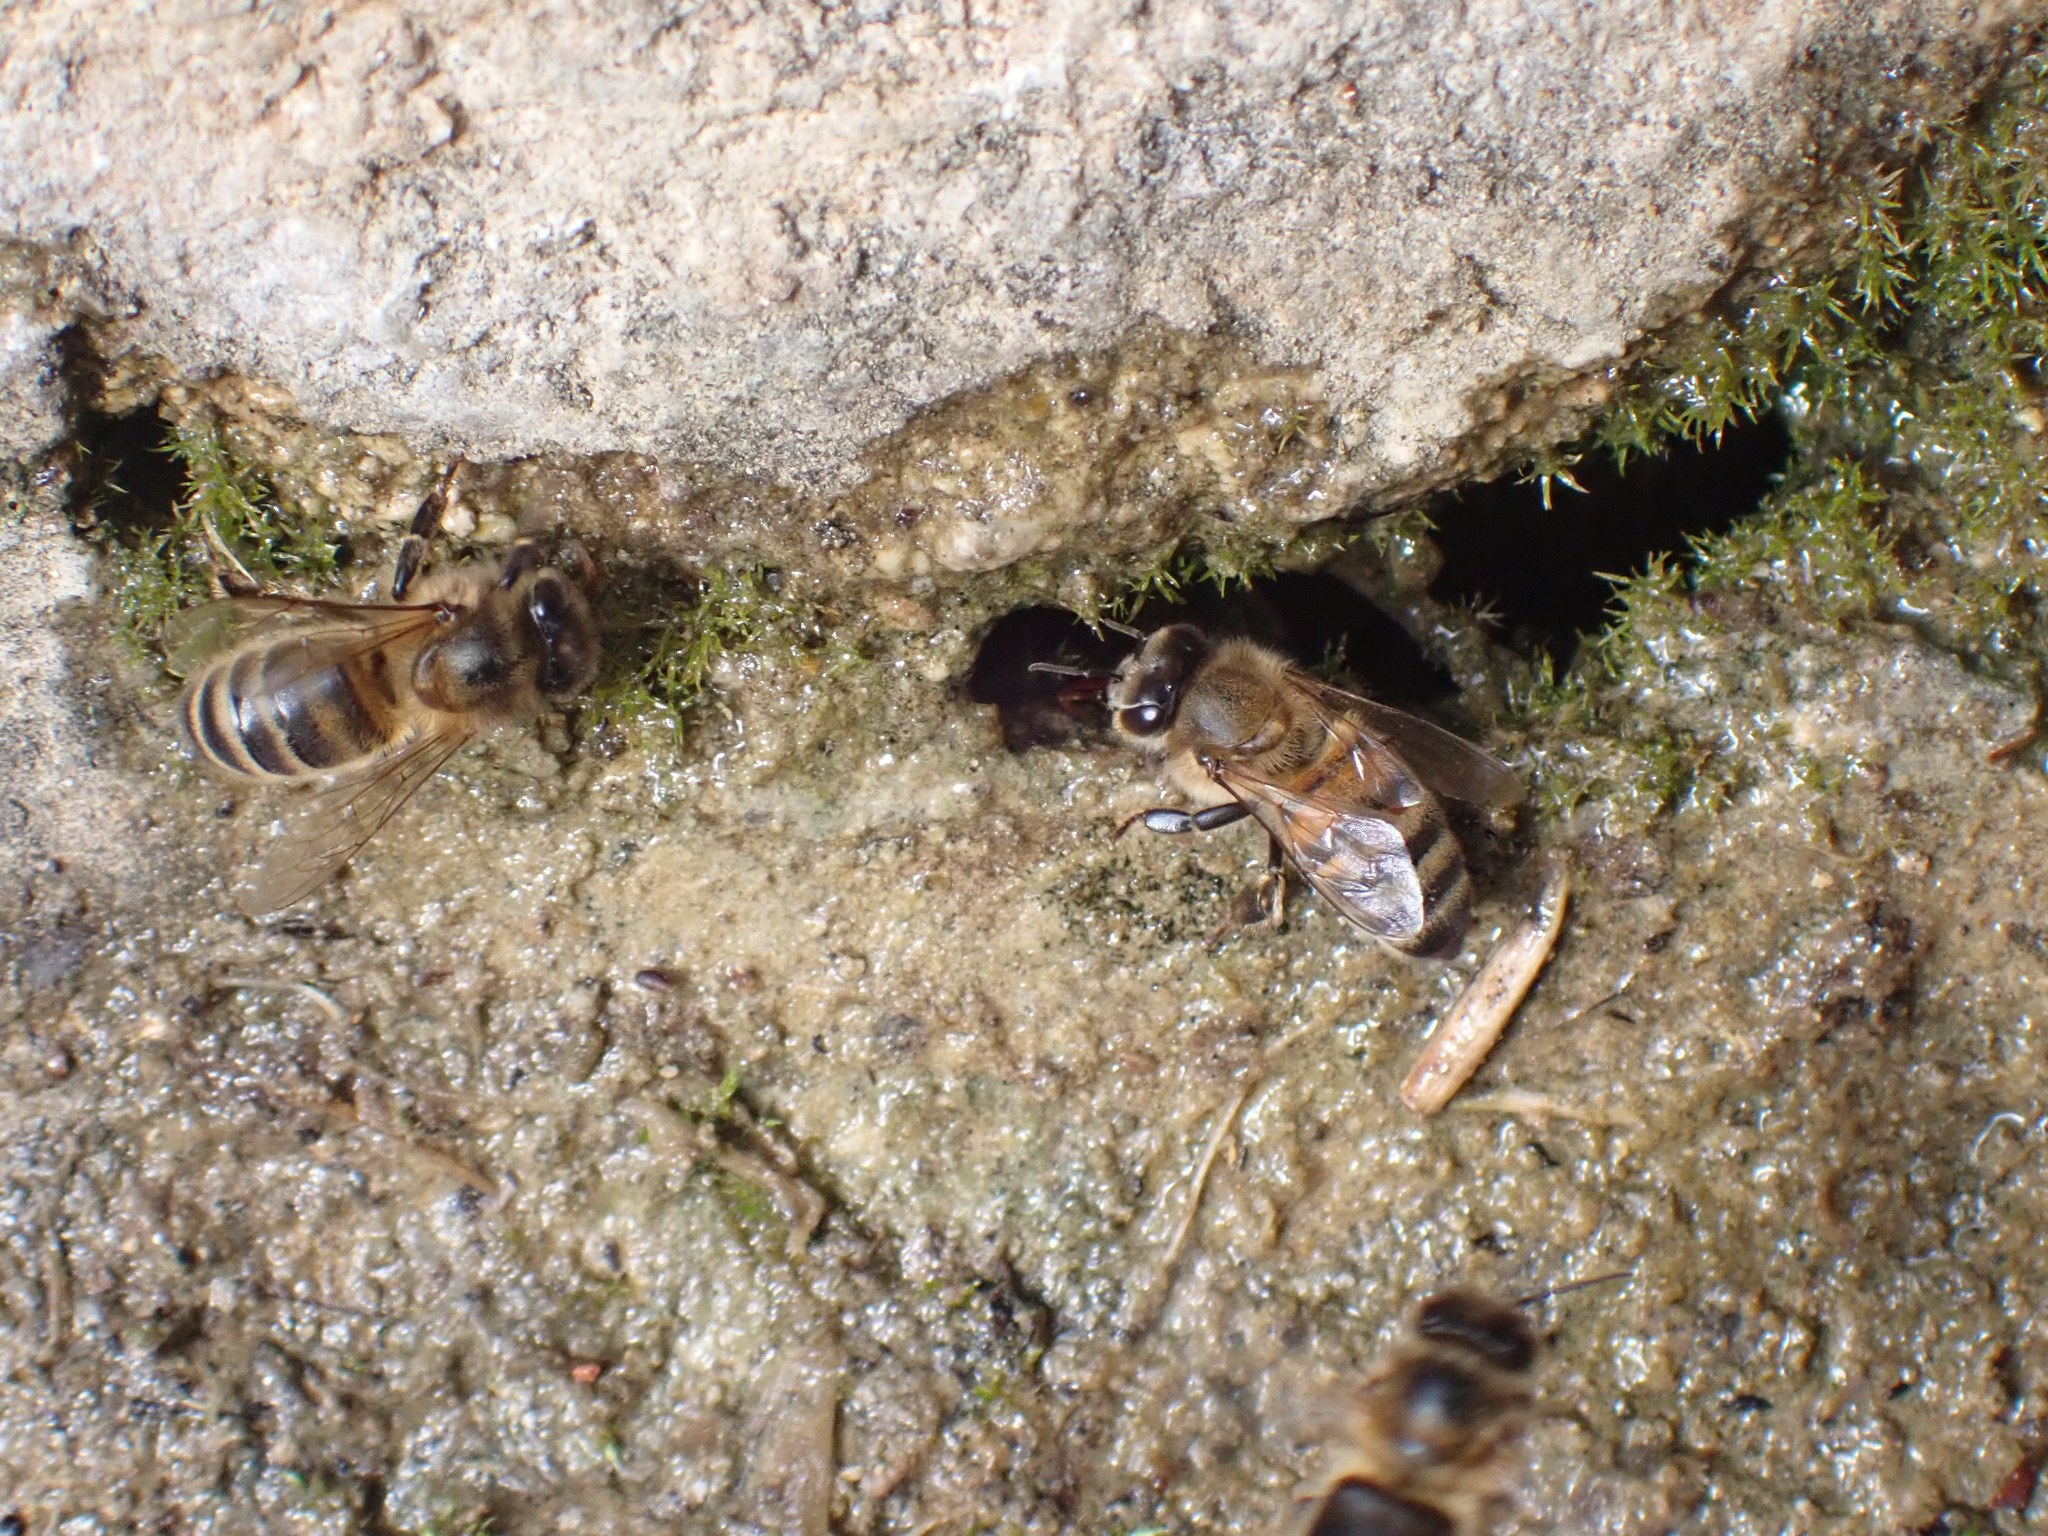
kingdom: Animalia
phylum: Arthropoda
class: Insecta
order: Hymenoptera
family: Apidae
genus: Apis
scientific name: Apis mellifera
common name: Honey bee
